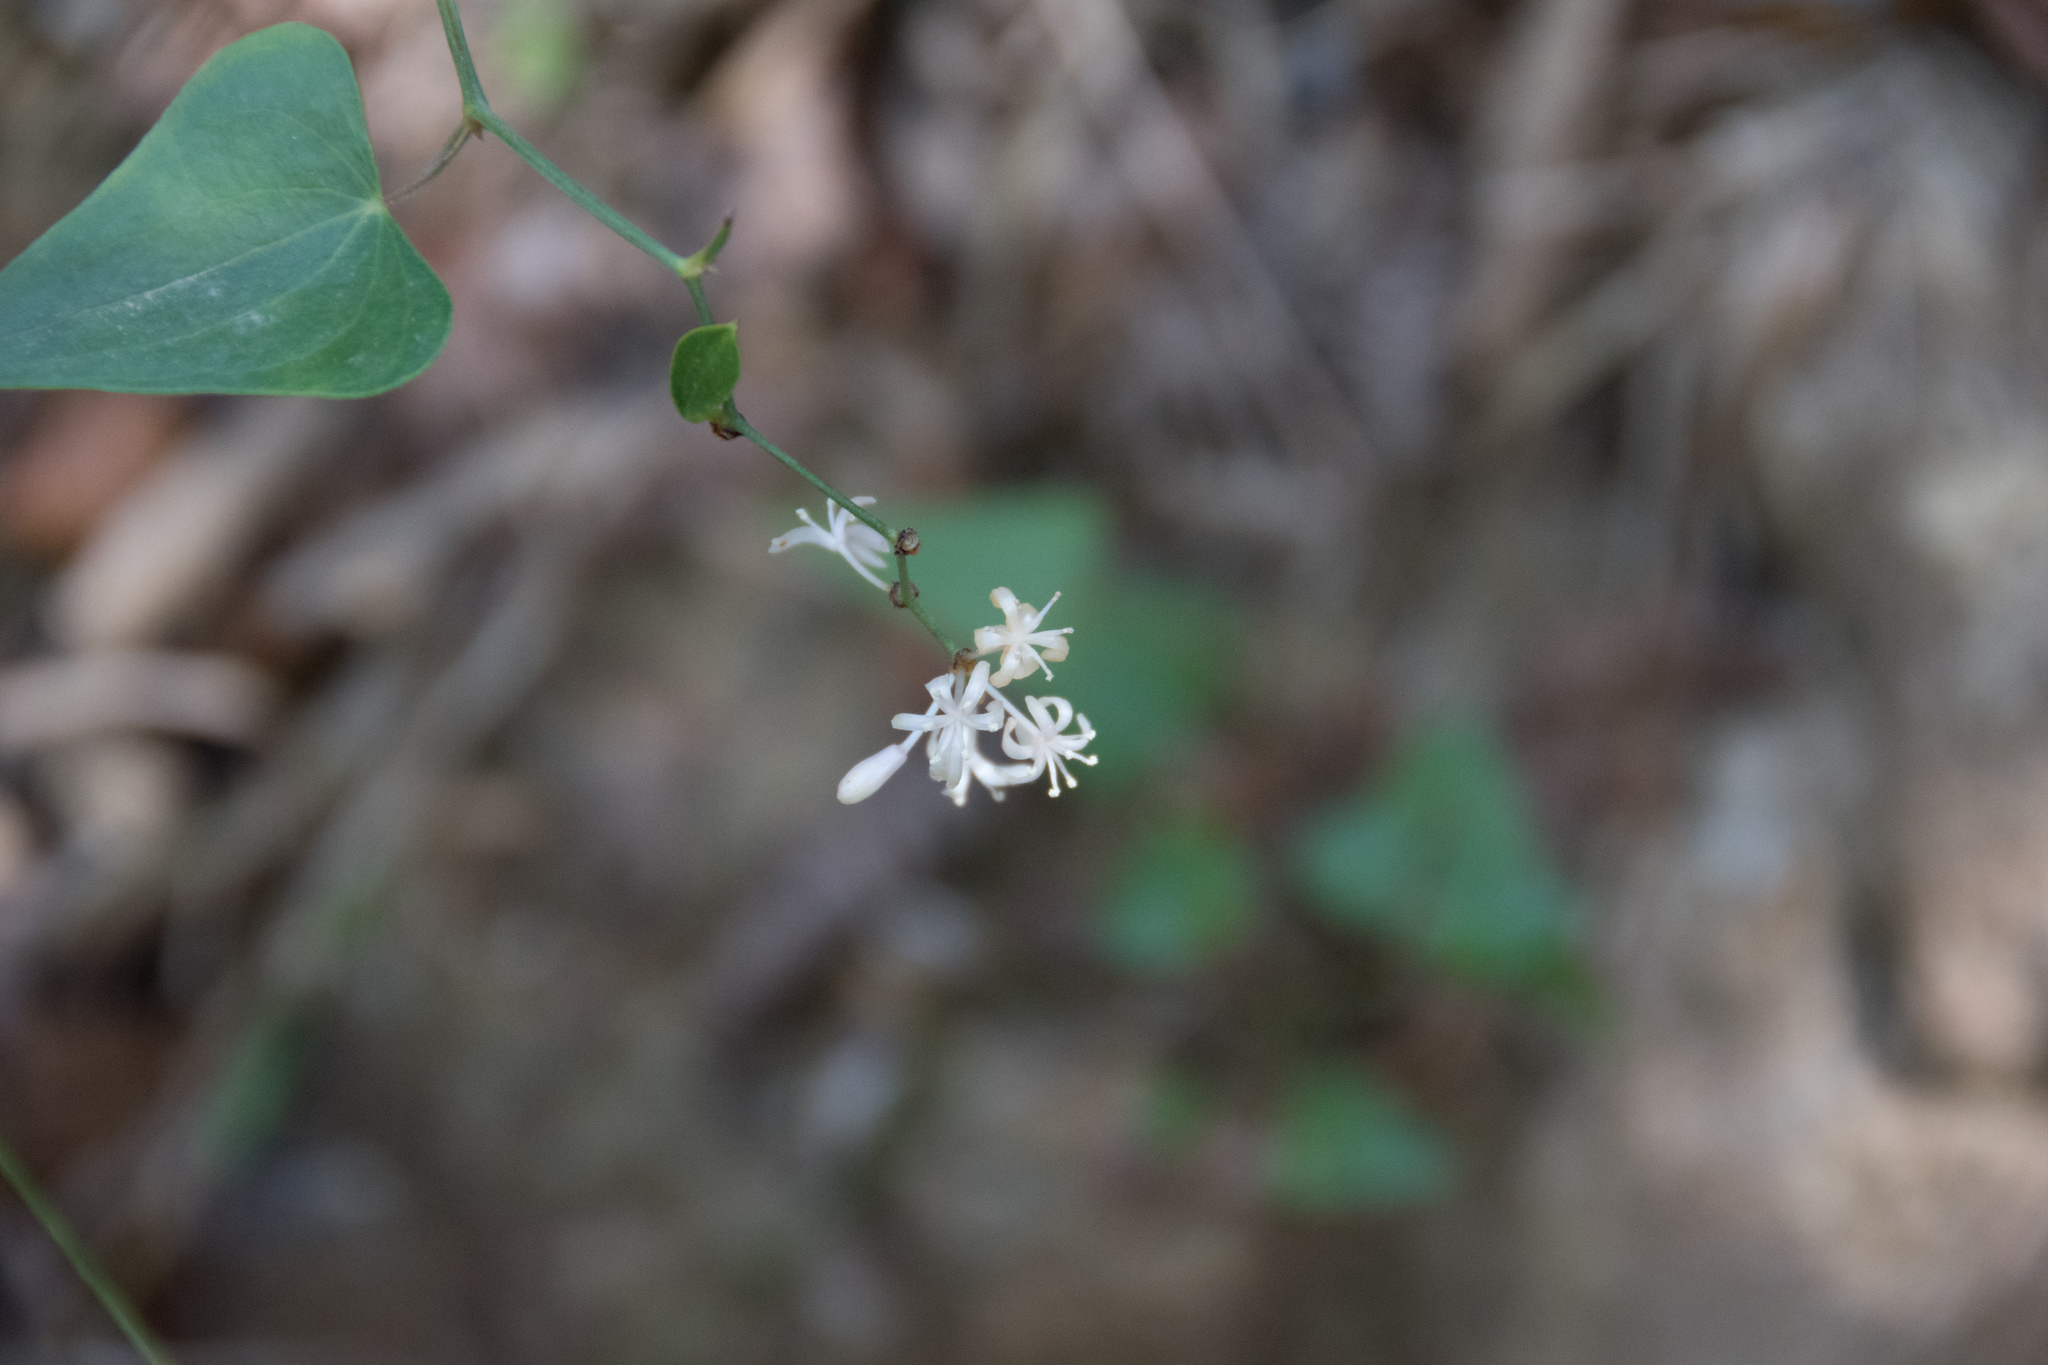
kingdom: Plantae
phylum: Tracheophyta
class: Liliopsida
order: Liliales
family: Smilacaceae
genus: Smilax
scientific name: Smilax aspera
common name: Common smilax
